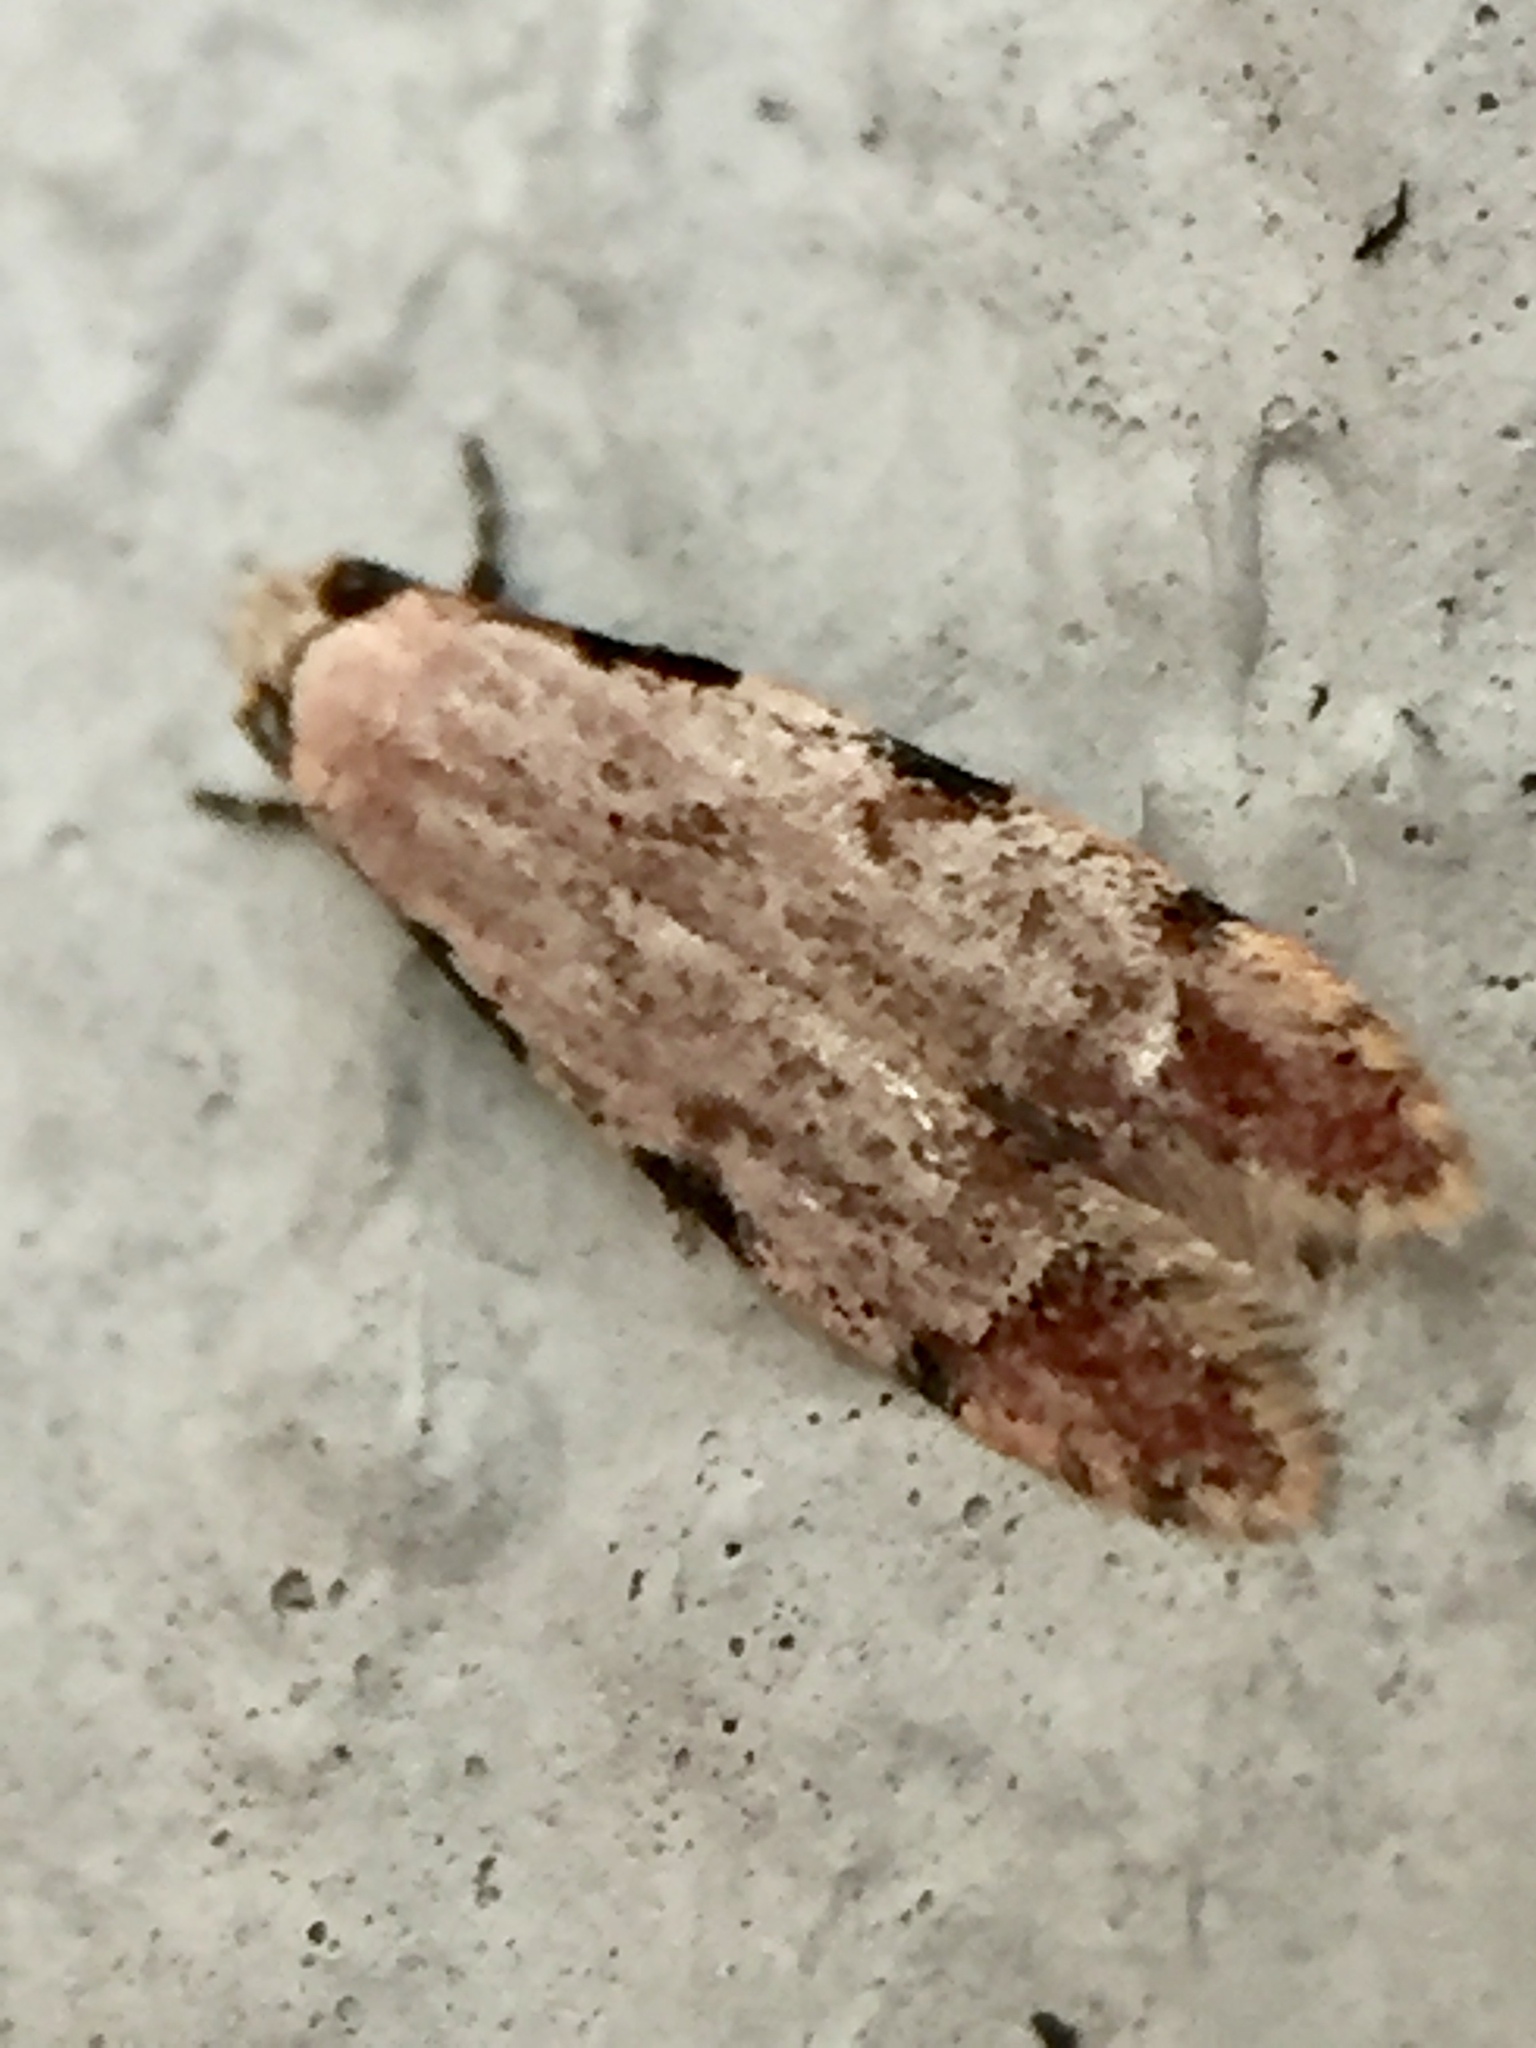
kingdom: Animalia
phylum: Arthropoda
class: Insecta
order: Lepidoptera
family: Tineidae
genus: Endophthora
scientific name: Endophthora rubiginella
